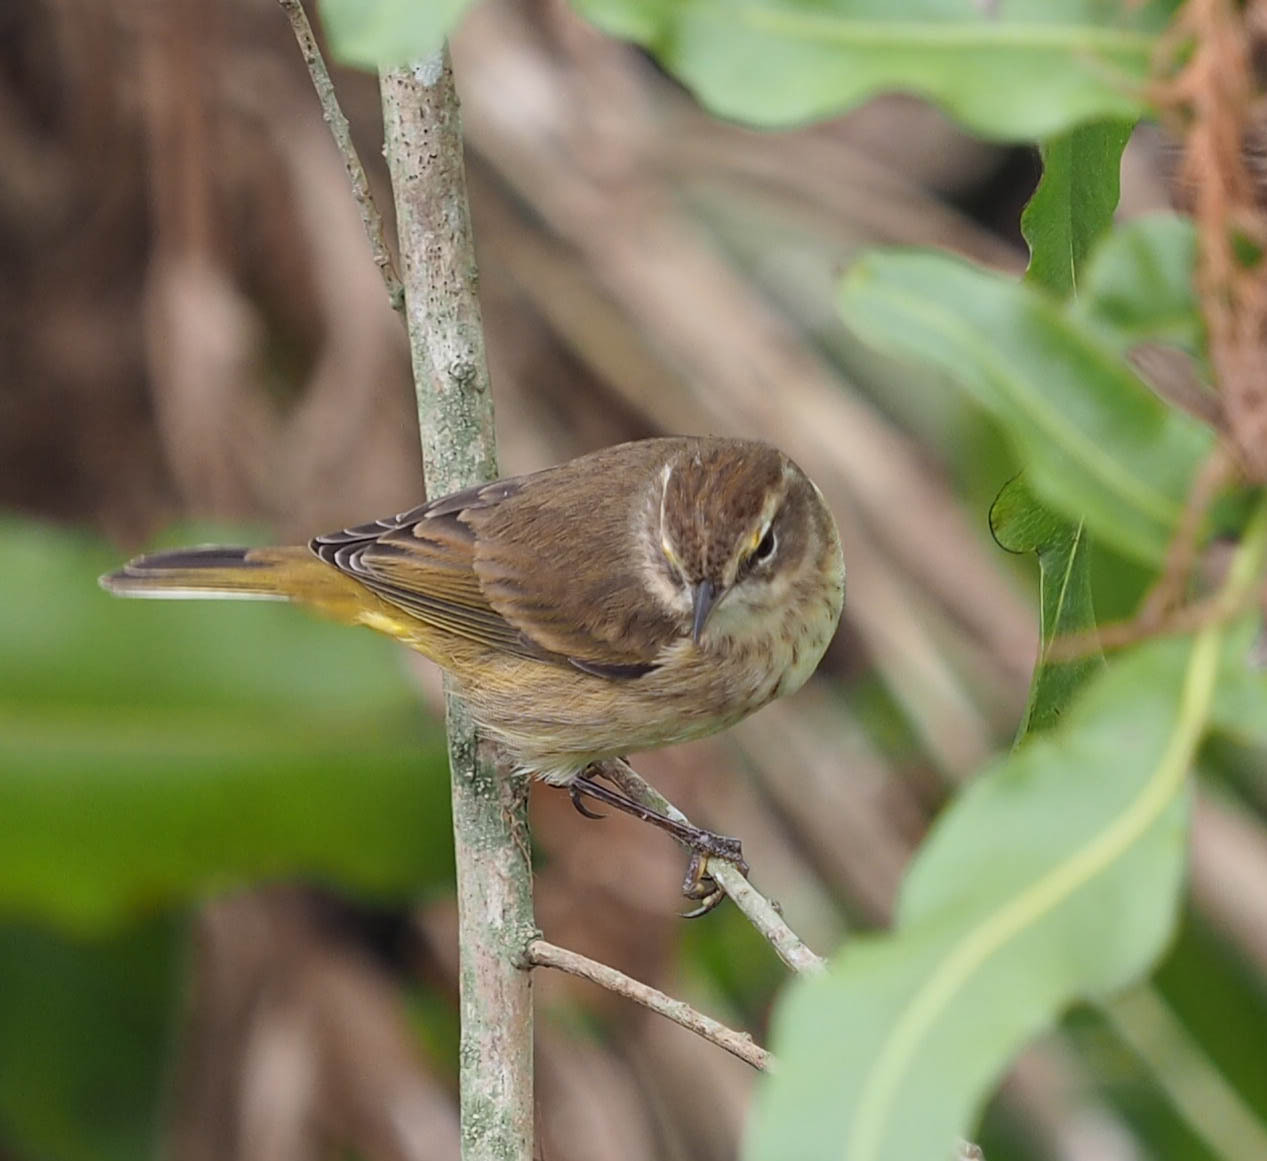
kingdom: Animalia
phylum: Chordata
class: Aves
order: Passeriformes
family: Parulidae
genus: Setophaga
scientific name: Setophaga palmarum
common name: Palm warbler
